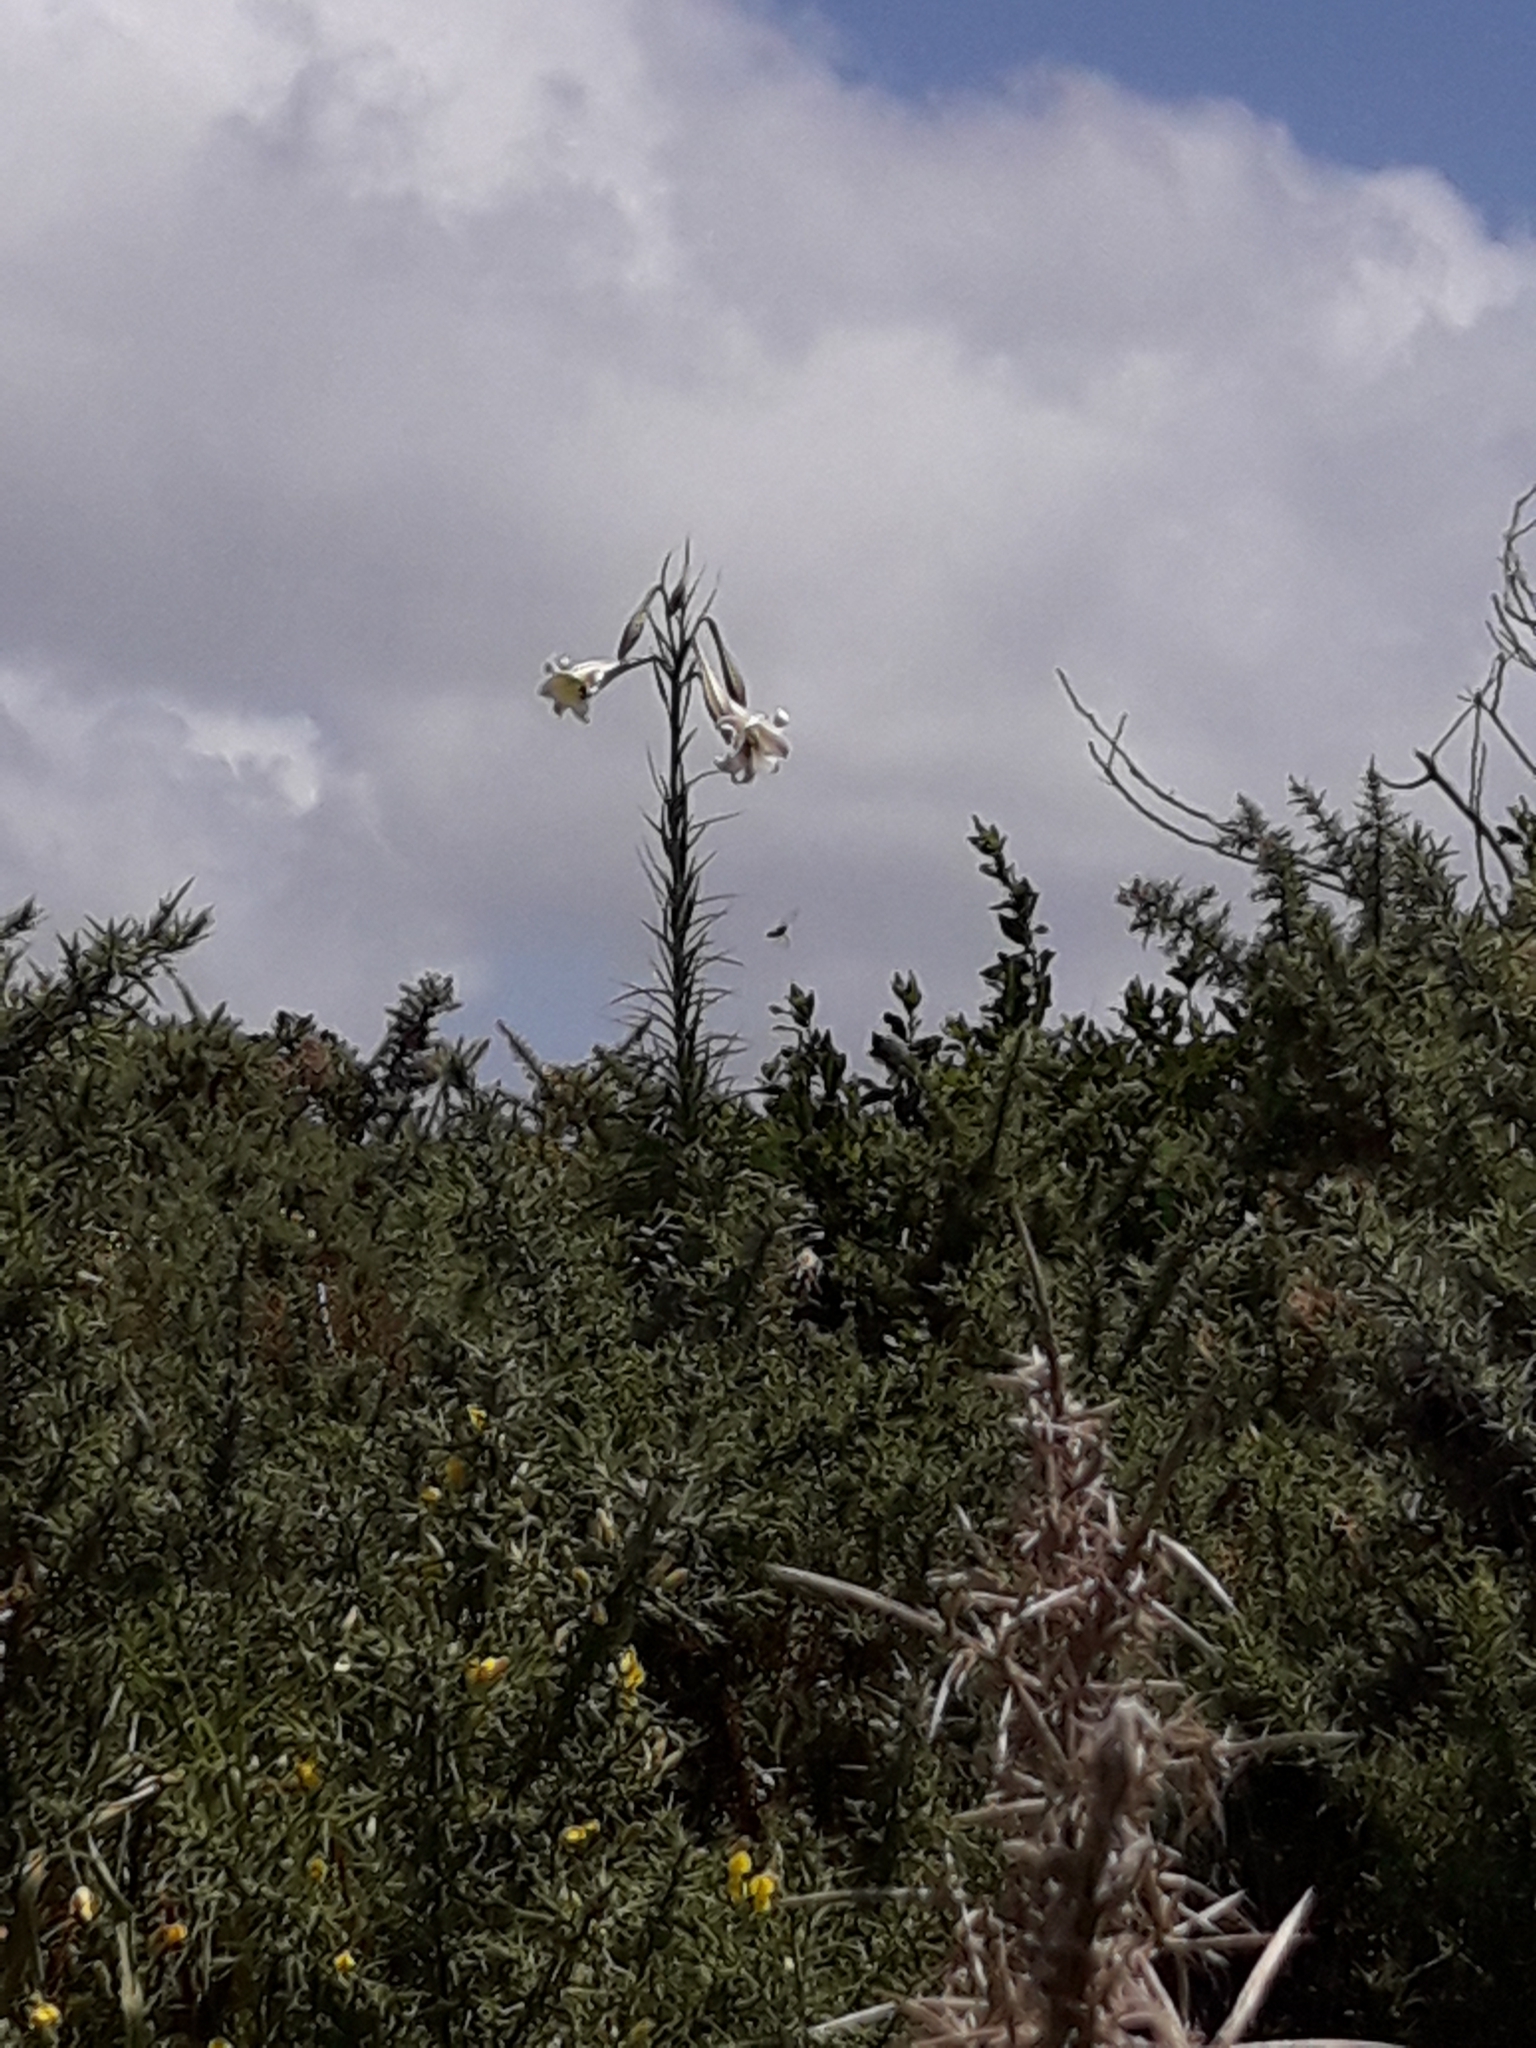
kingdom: Plantae
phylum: Tracheophyta
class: Liliopsida
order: Liliales
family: Liliaceae
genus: Lilium
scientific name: Lilium formosanum
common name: Formosa lily
